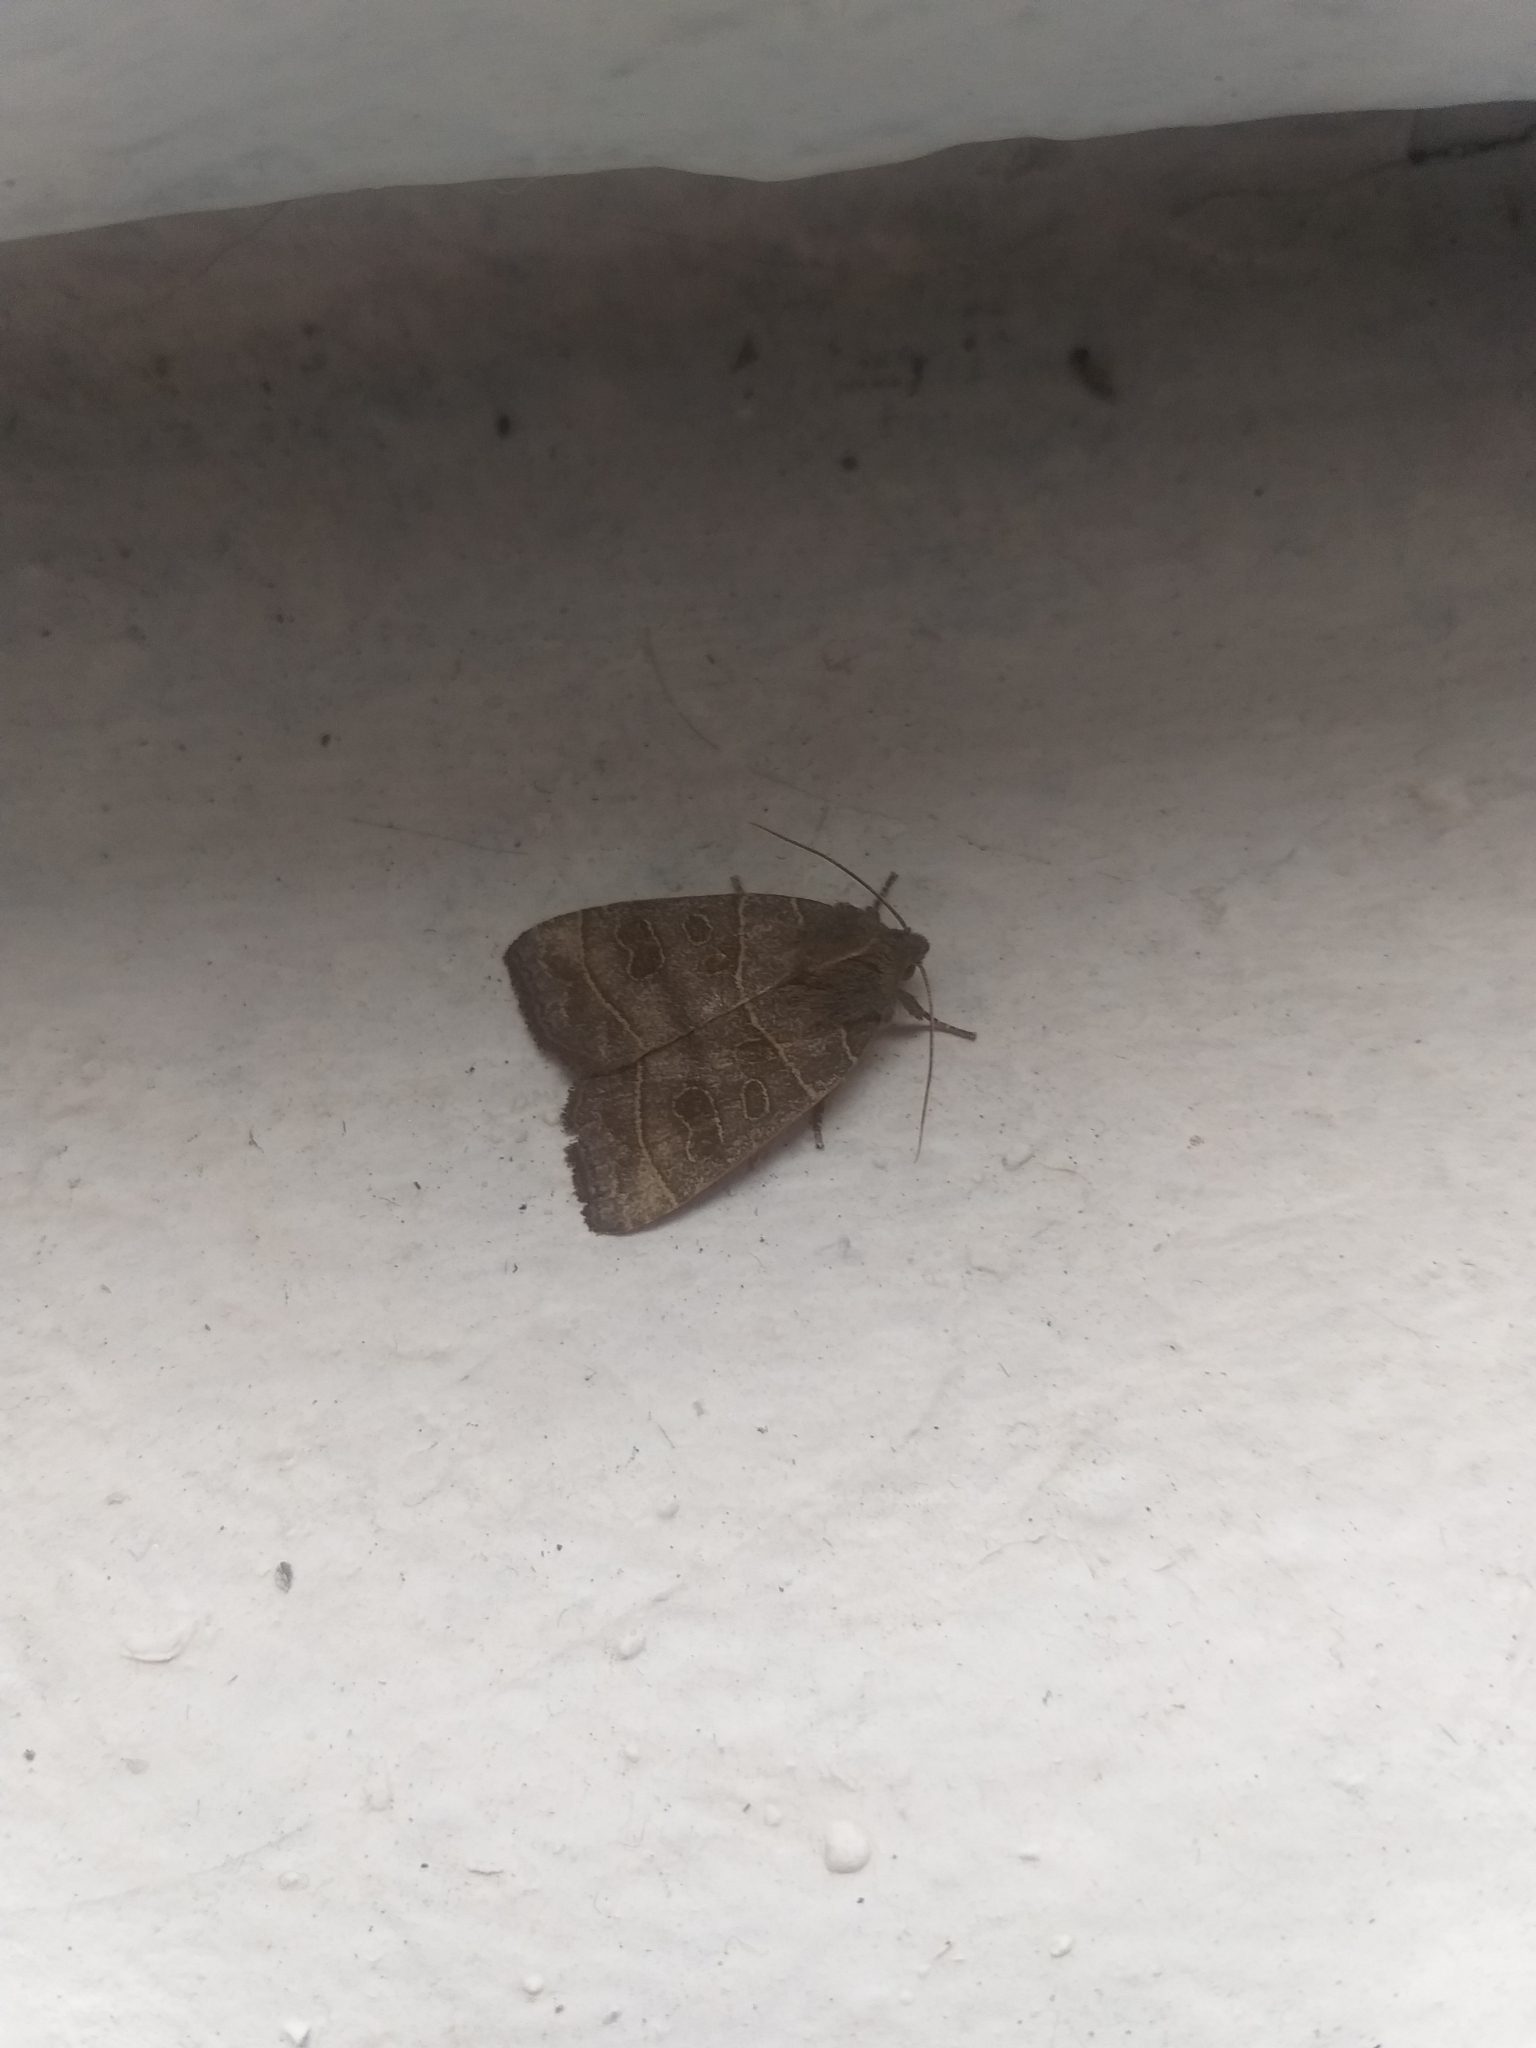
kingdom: Animalia
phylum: Arthropoda
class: Insecta
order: Lepidoptera
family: Noctuidae
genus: Ipimorpha
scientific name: Ipimorpha subtusa
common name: Olive
